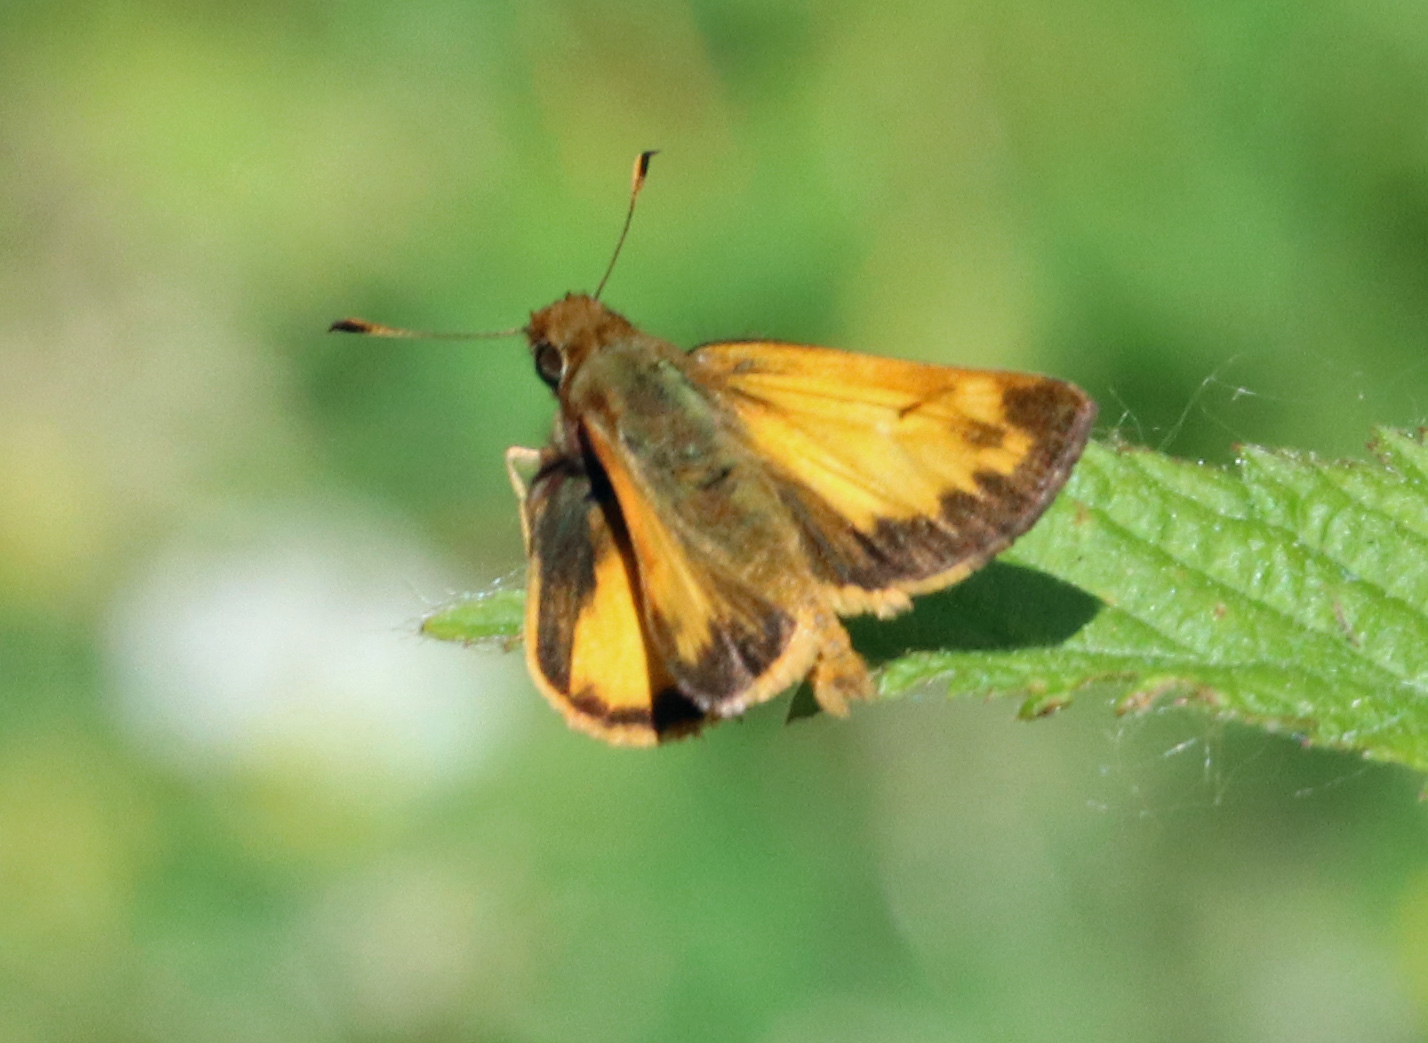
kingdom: Animalia
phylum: Arthropoda
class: Insecta
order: Lepidoptera
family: Hesperiidae
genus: Lon
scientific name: Lon zabulon
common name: Zabulon skipper
